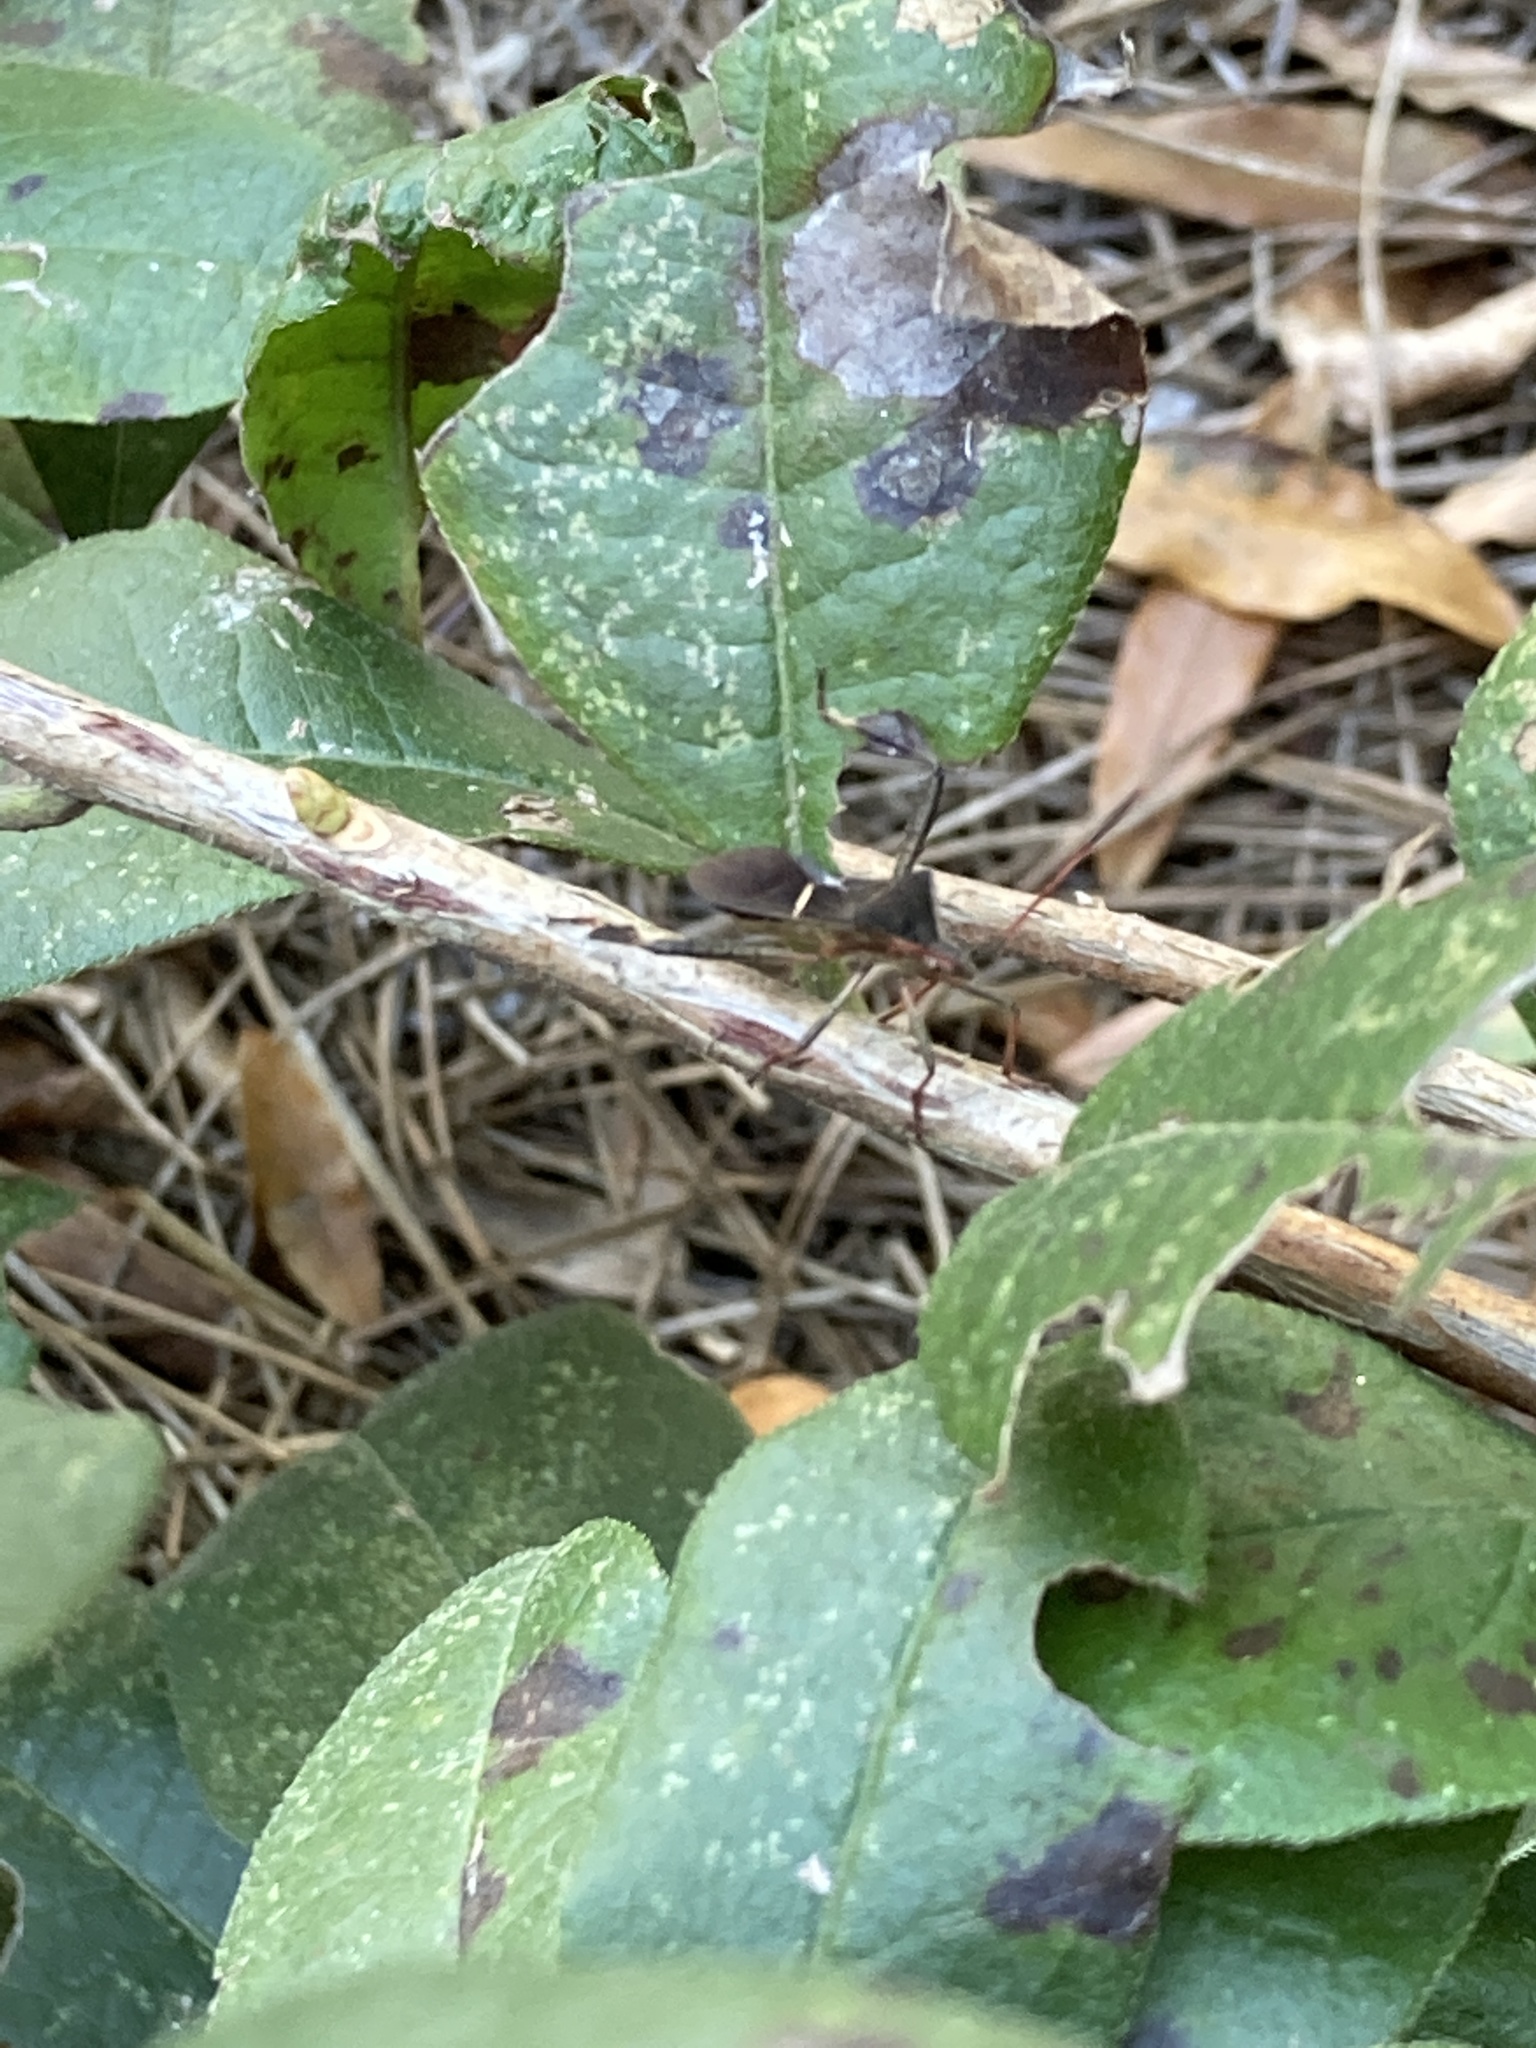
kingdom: Animalia
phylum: Arthropoda
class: Insecta
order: Hemiptera
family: Coreidae
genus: Leptoglossus
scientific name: Leptoglossus phyllopus
